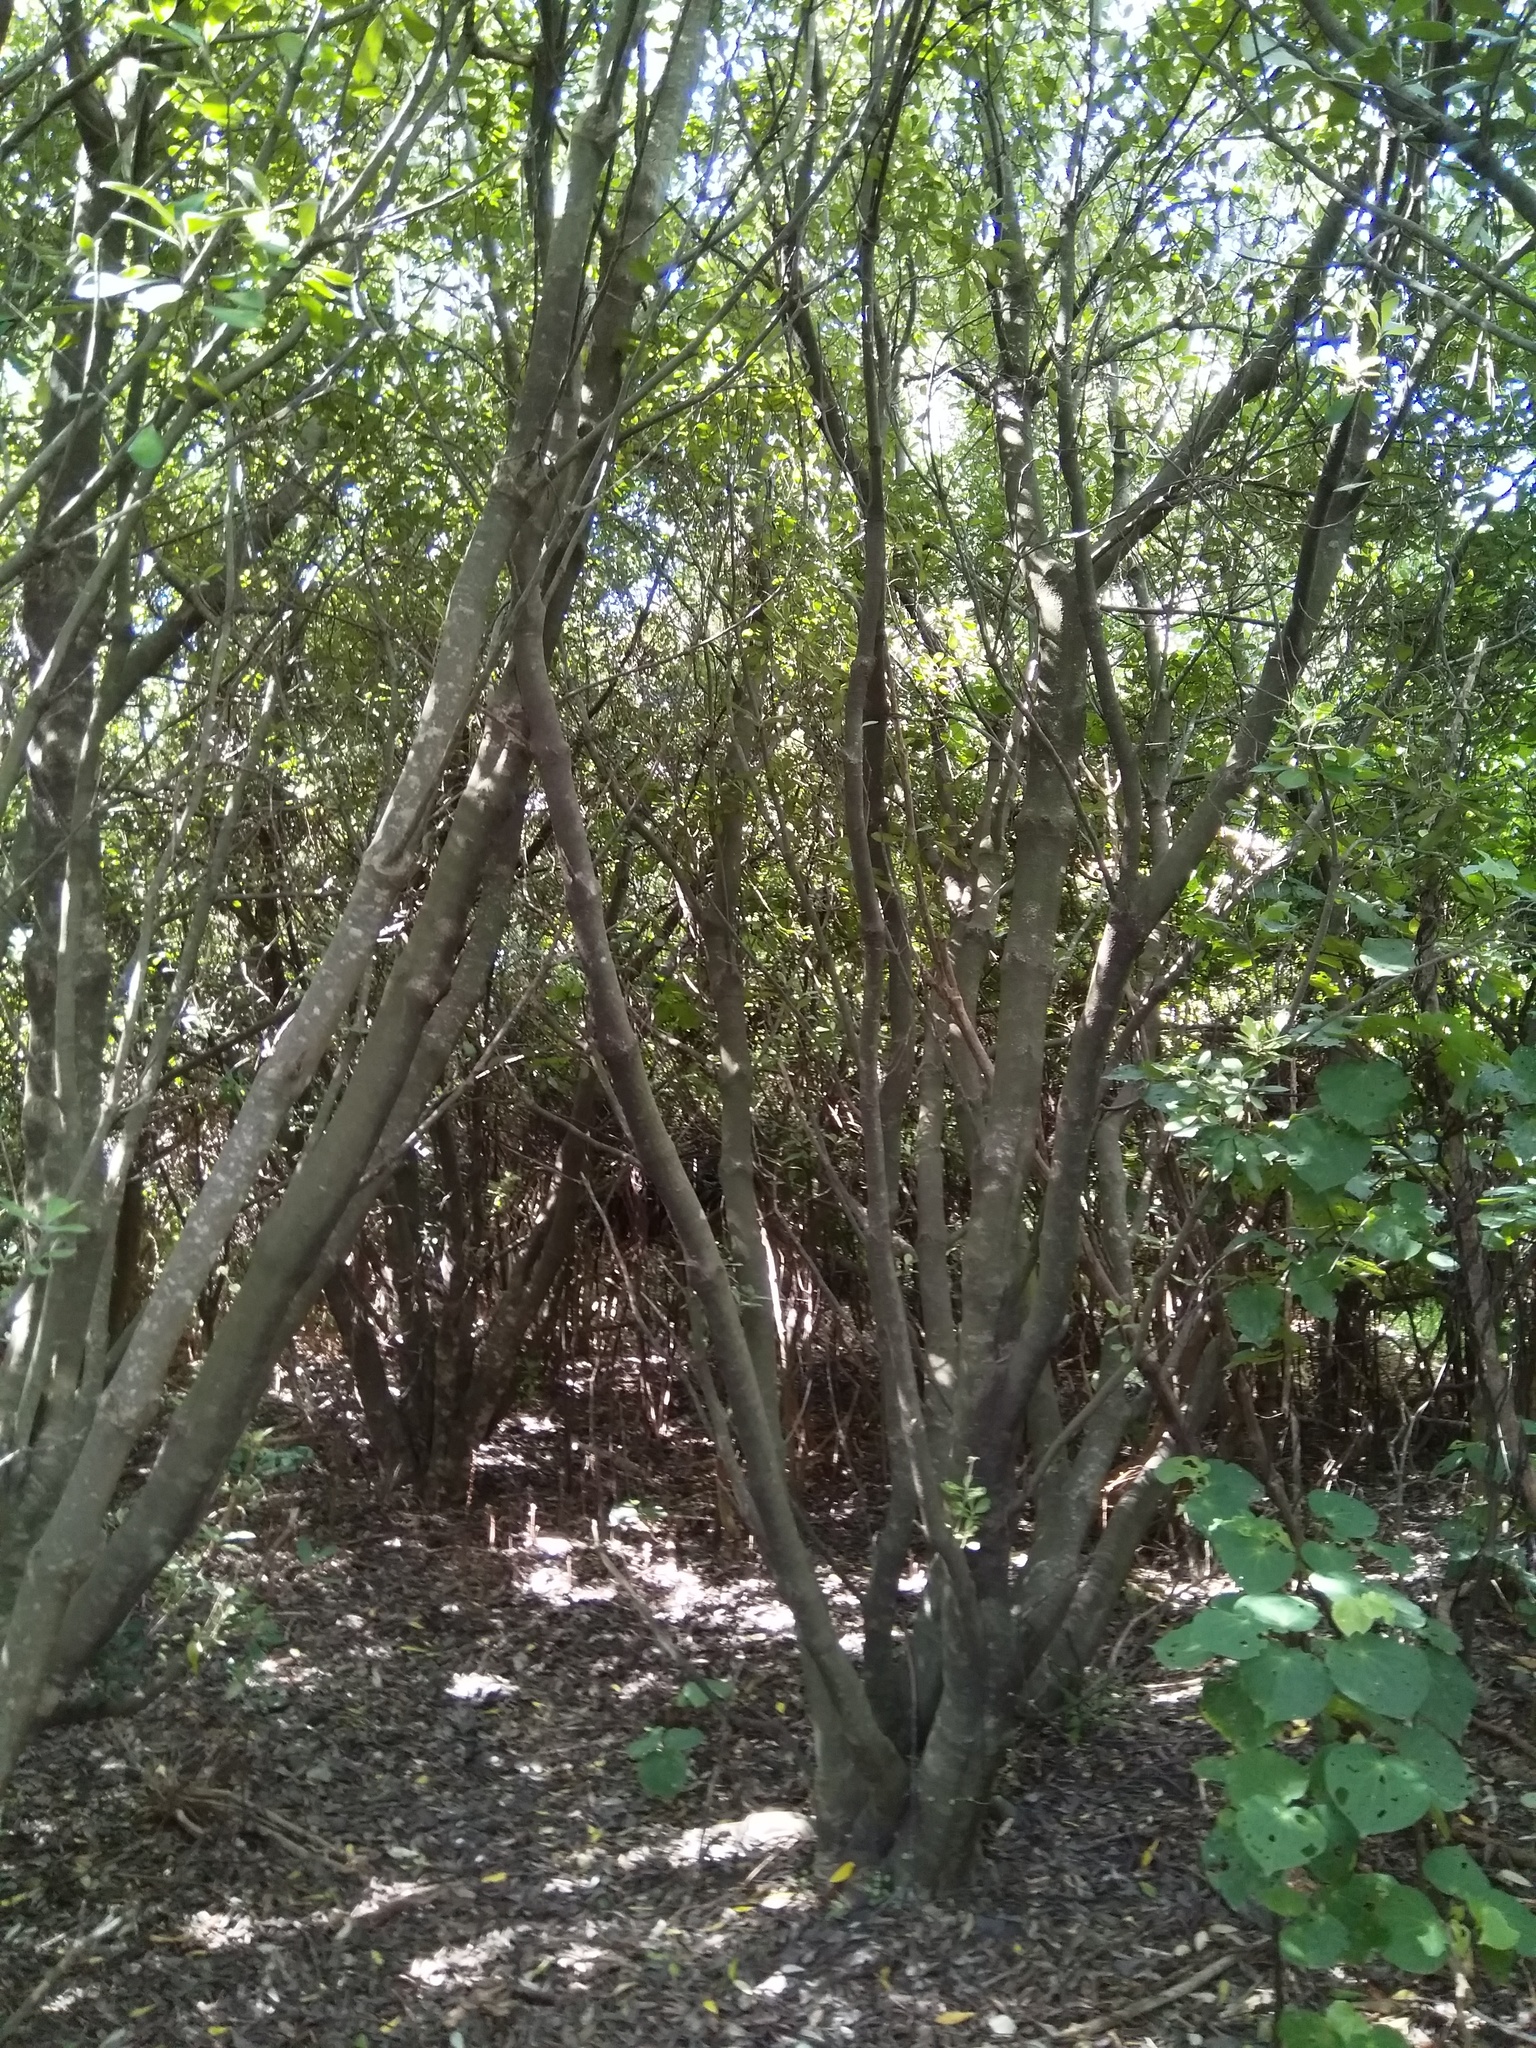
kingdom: Plantae
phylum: Tracheophyta
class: Magnoliopsida
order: Lamiales
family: Orobanchaceae
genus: Orobanche
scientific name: Orobanche minor
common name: Common broomrape
